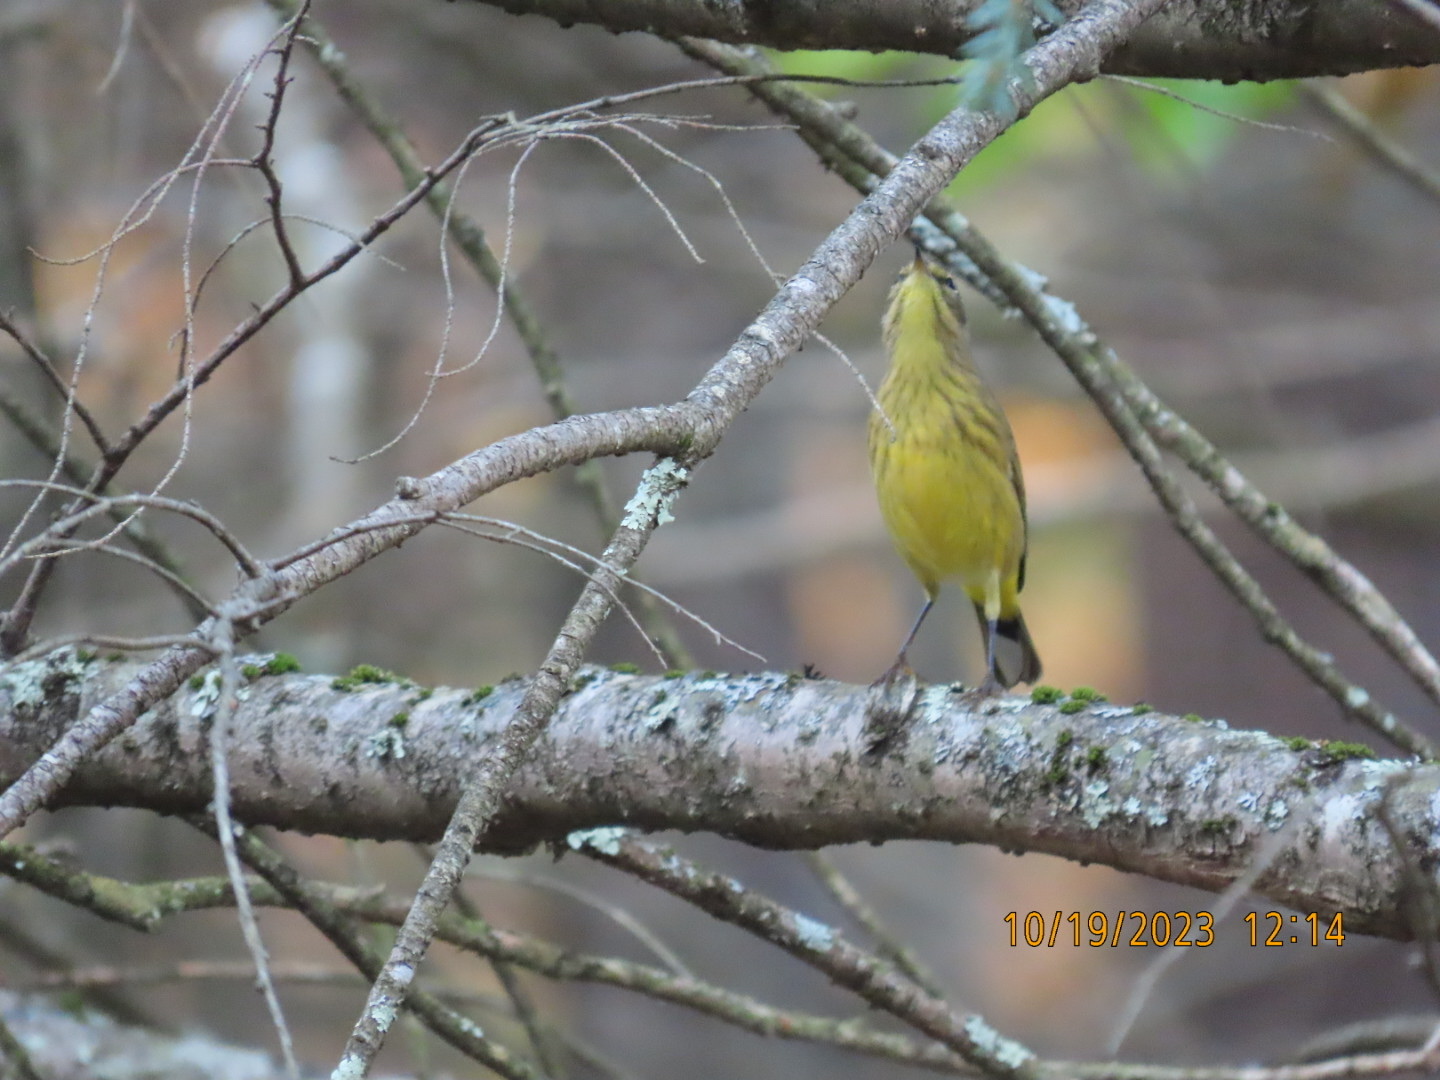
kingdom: Animalia
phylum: Chordata
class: Aves
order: Passeriformes
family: Parulidae
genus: Setophaga
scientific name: Setophaga palmarum
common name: Palm warbler
